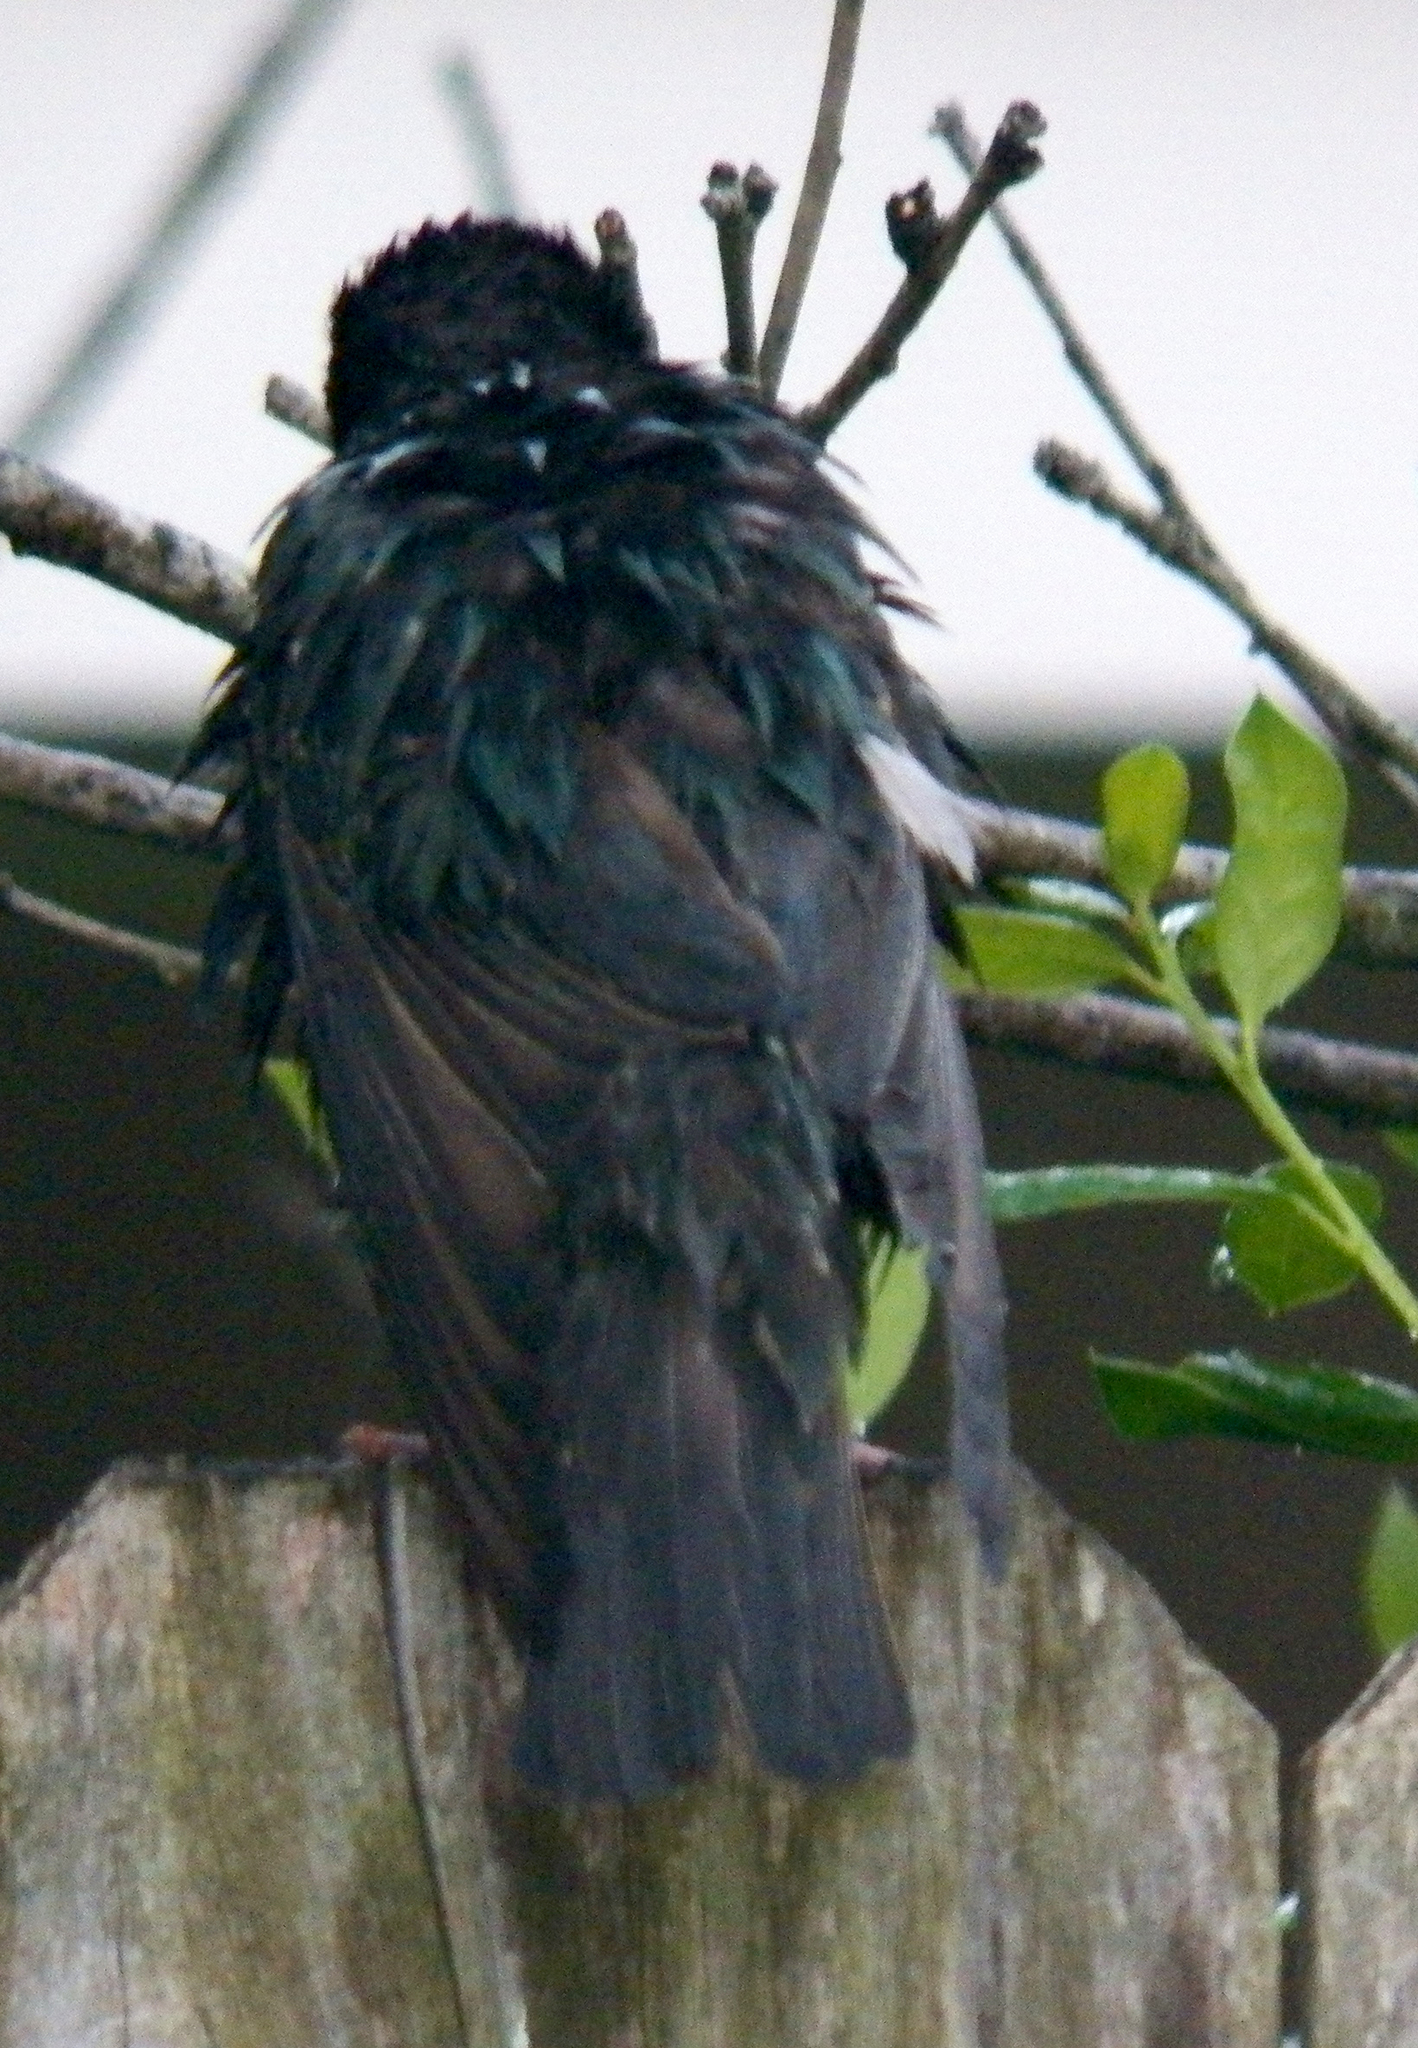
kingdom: Animalia
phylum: Chordata
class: Aves
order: Passeriformes
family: Sturnidae
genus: Sturnus
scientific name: Sturnus vulgaris
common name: Common starling
